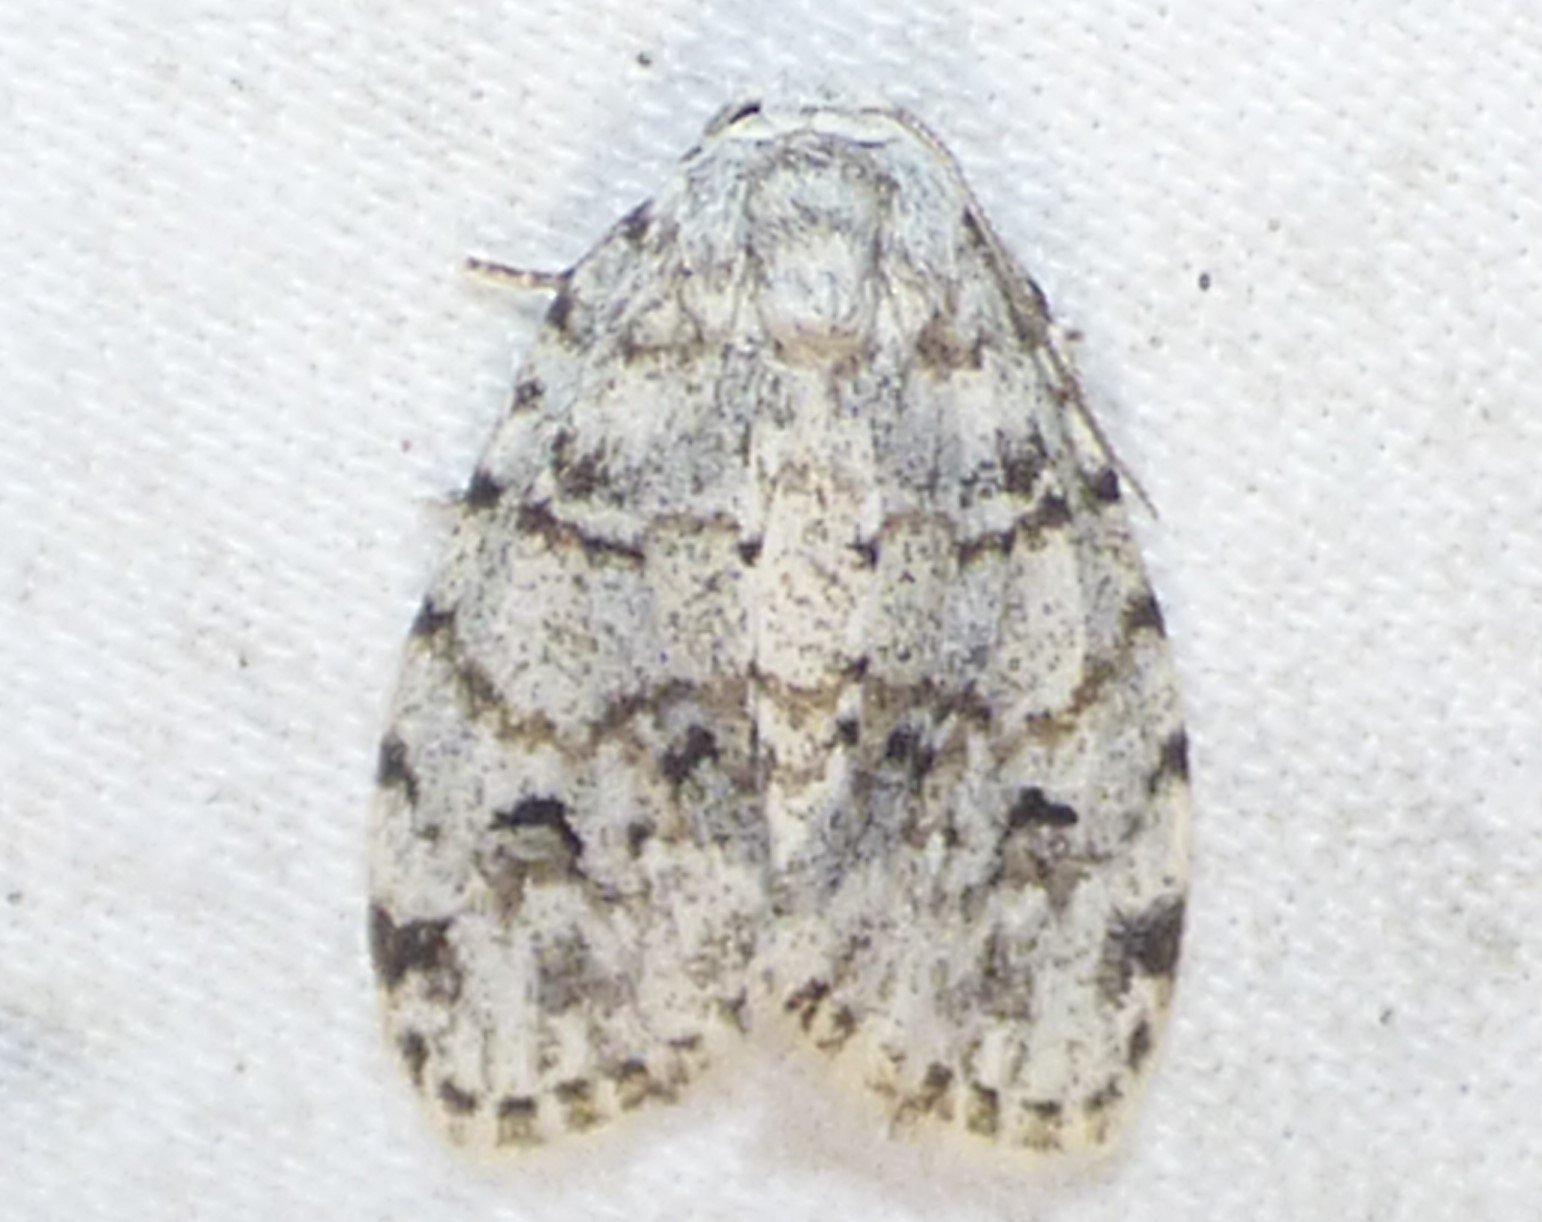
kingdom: Animalia
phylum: Arthropoda
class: Insecta
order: Lepidoptera
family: Erebidae
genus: Clemensia
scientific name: Clemensia albata
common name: Little white lichen moth
